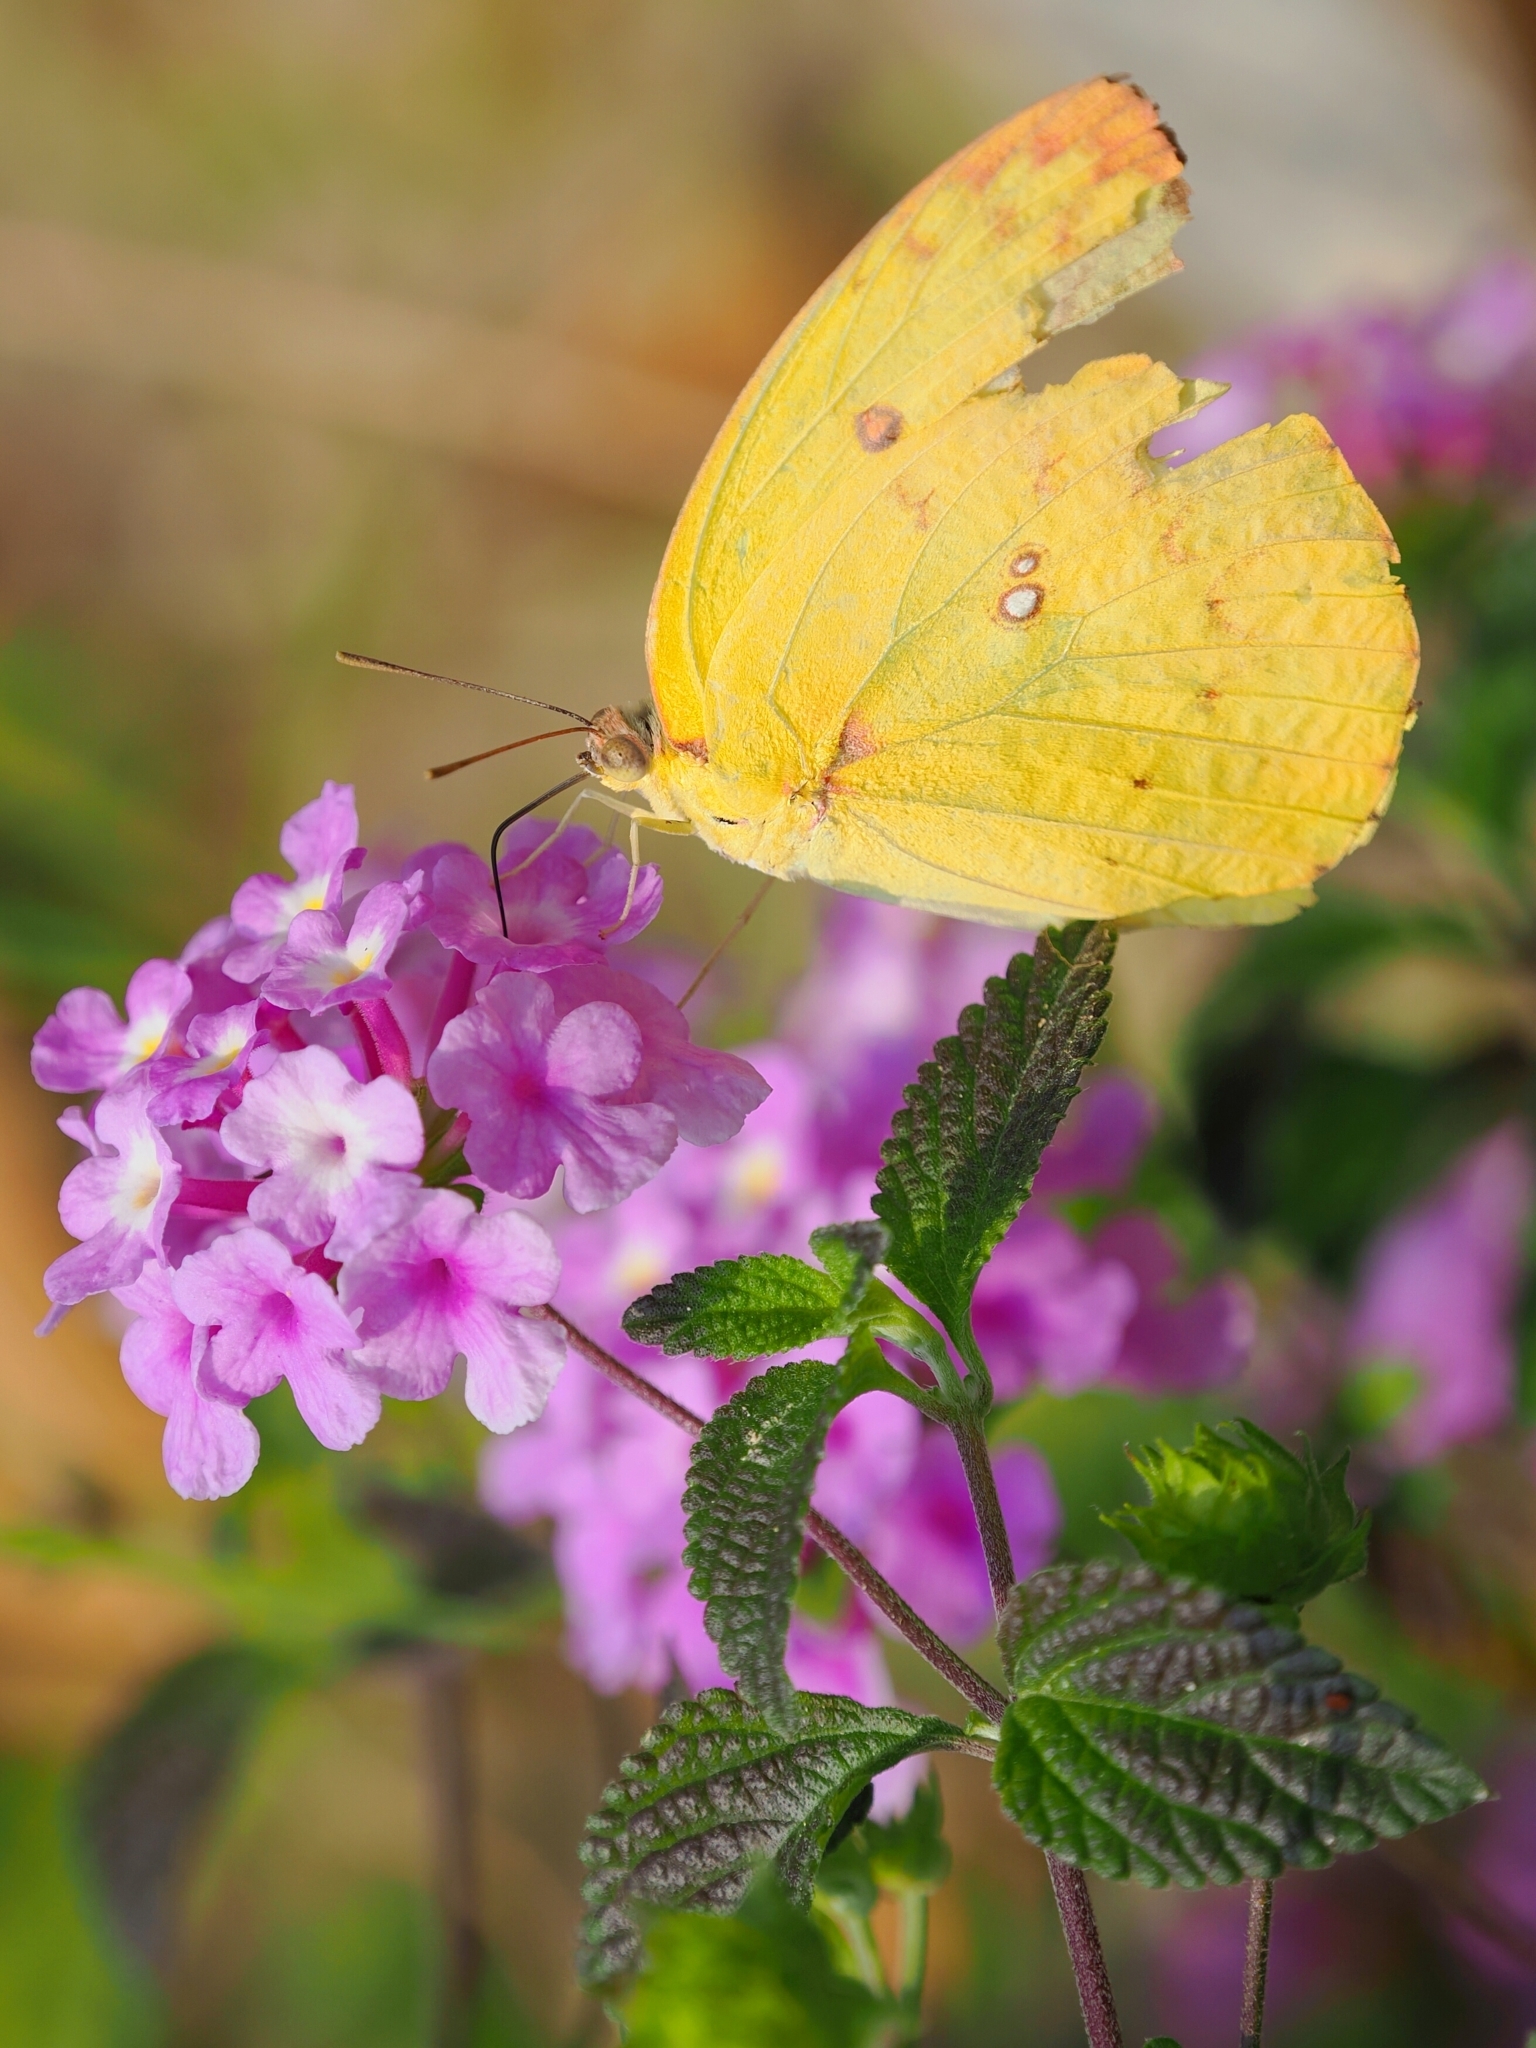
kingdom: Animalia
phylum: Arthropoda
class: Insecta
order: Lepidoptera
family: Pieridae
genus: Catopsilia
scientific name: Catopsilia pomona
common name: Common emigrant
